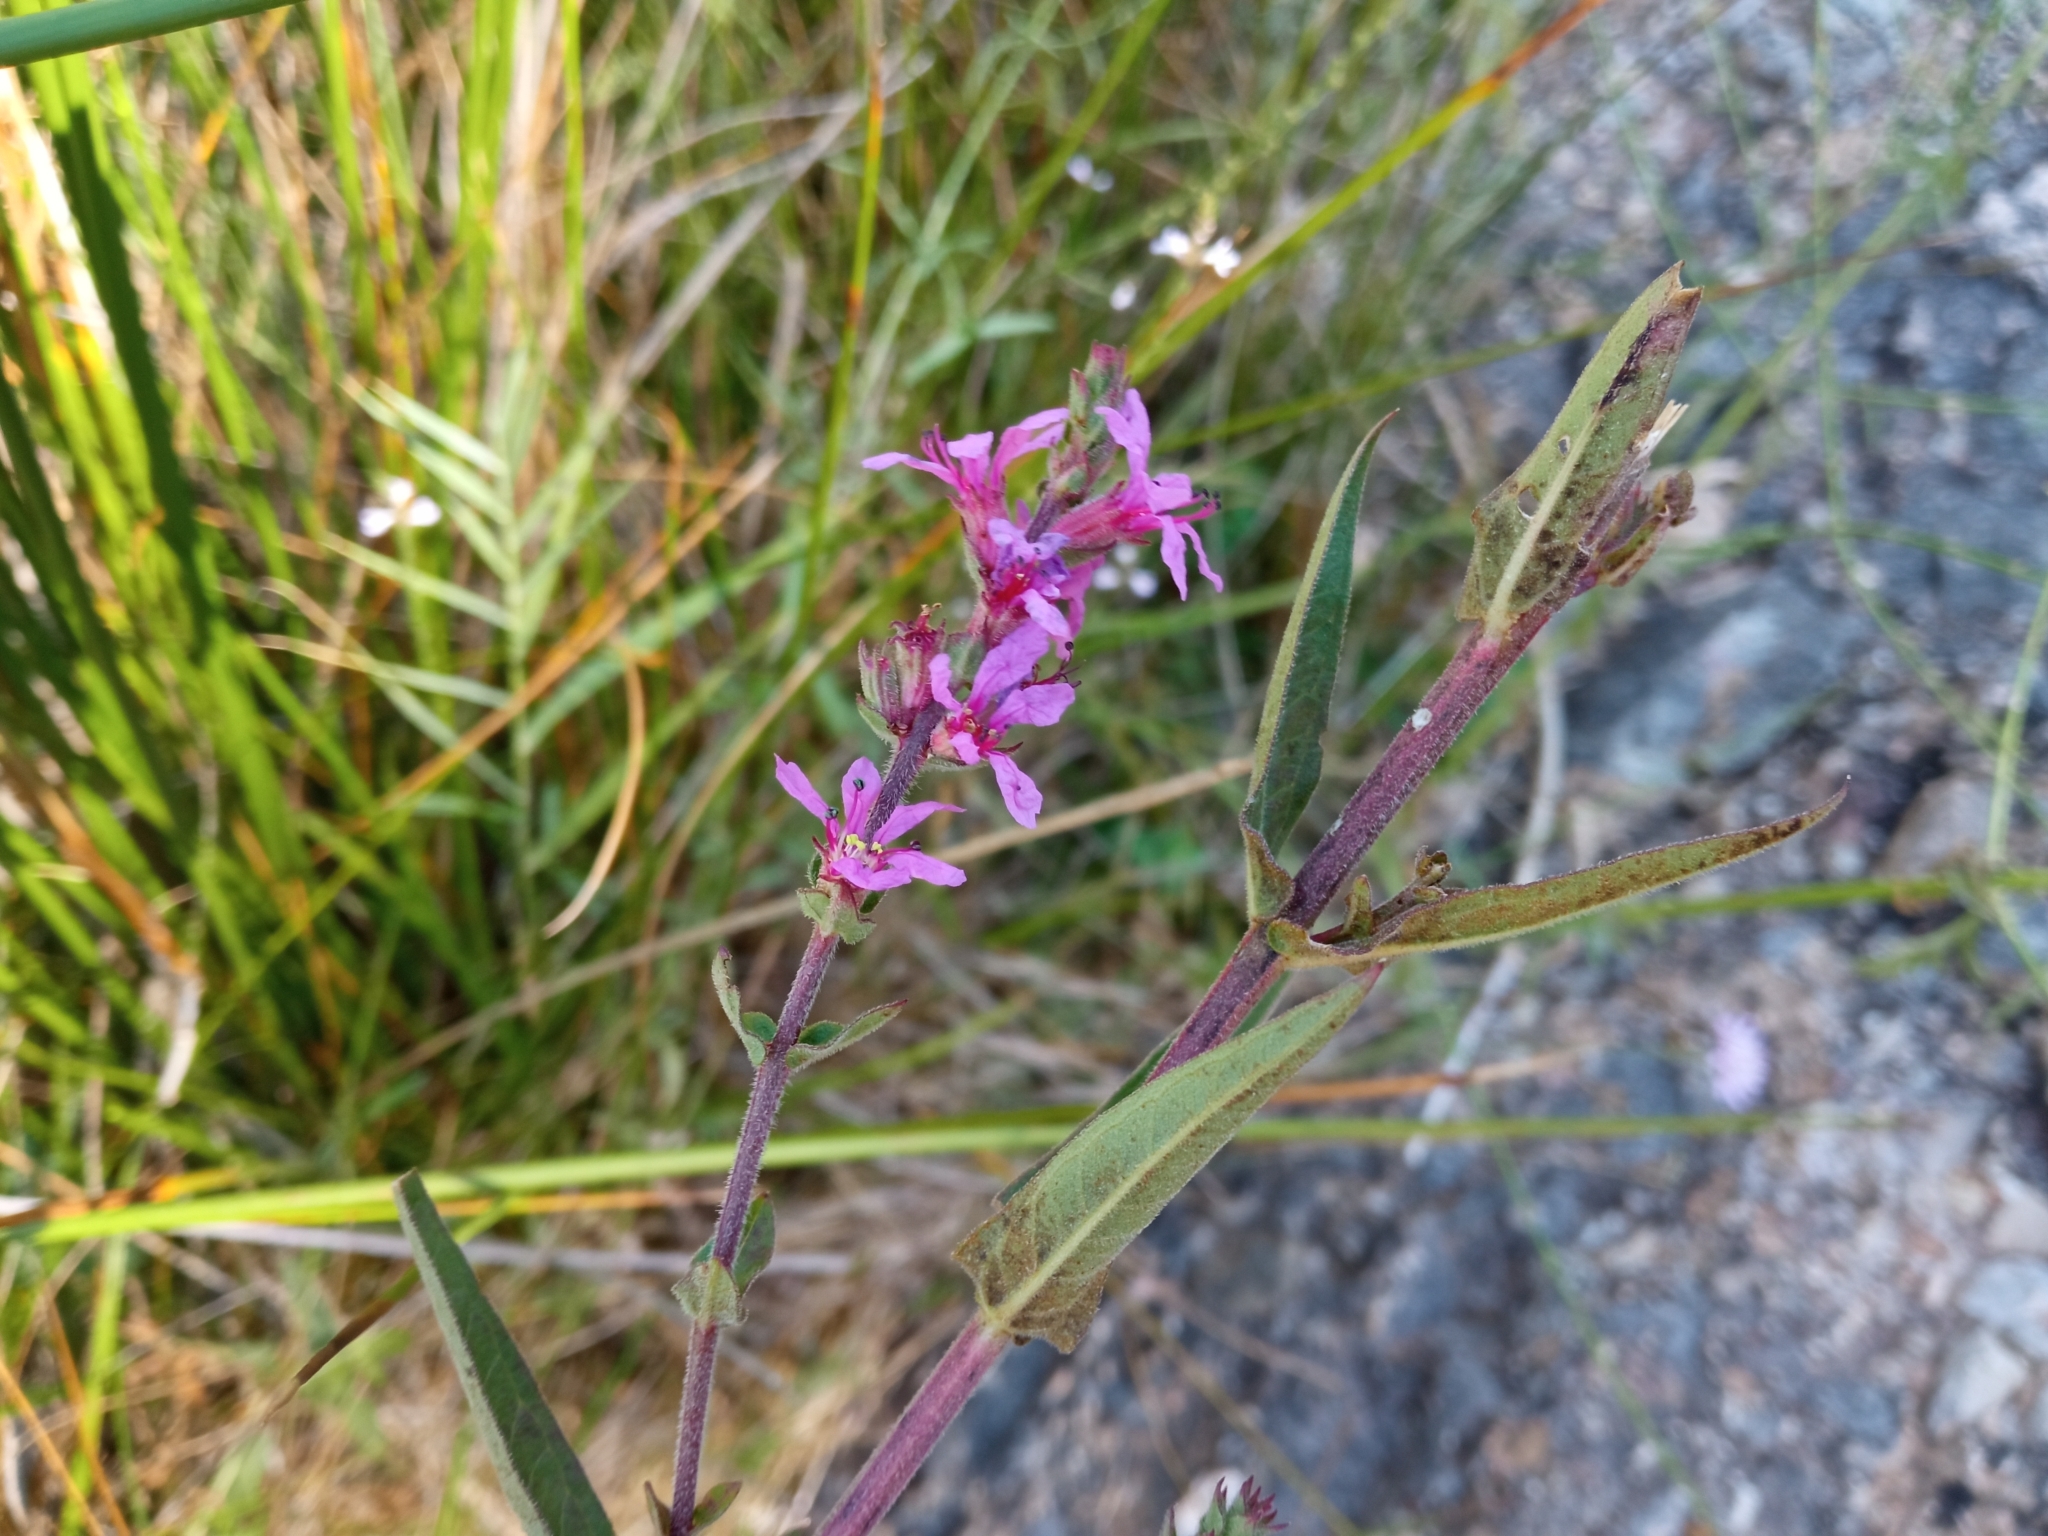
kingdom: Plantae
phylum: Tracheophyta
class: Magnoliopsida
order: Myrtales
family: Lythraceae
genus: Lythrum
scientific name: Lythrum salicaria
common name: Purple loosestrife
